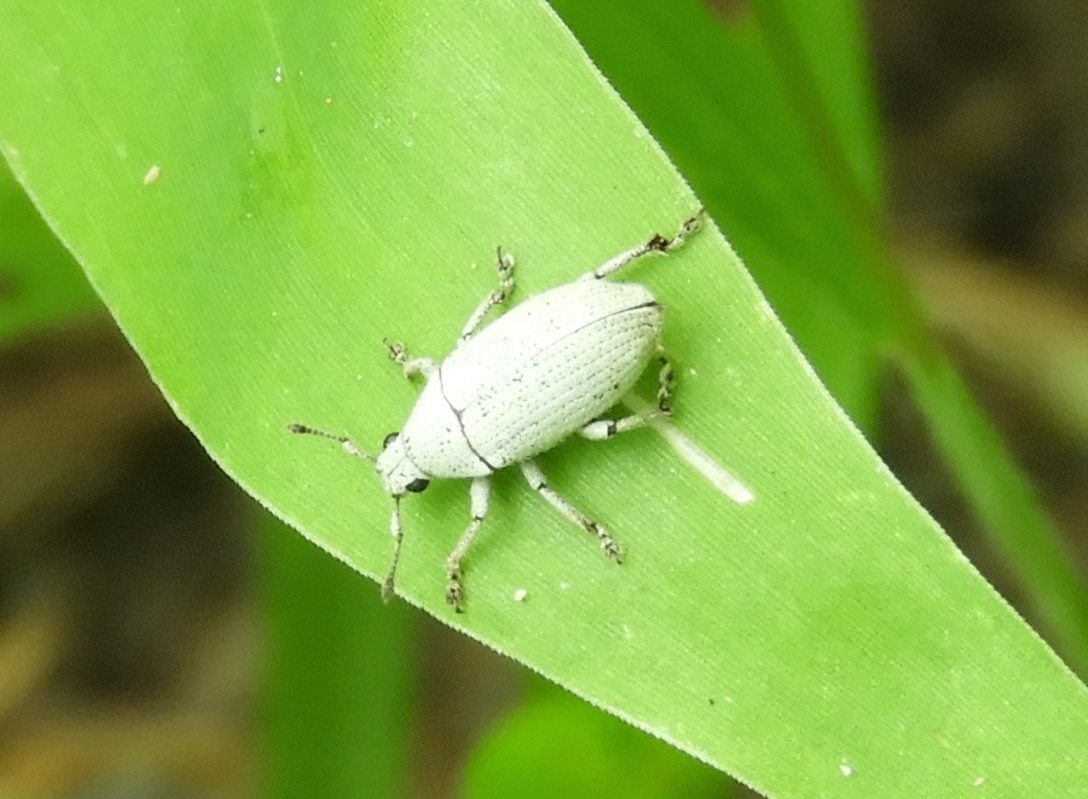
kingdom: Animalia
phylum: Arthropoda
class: Insecta
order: Coleoptera
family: Curculionidae
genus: Megalostylus
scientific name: Megalostylus albicans
